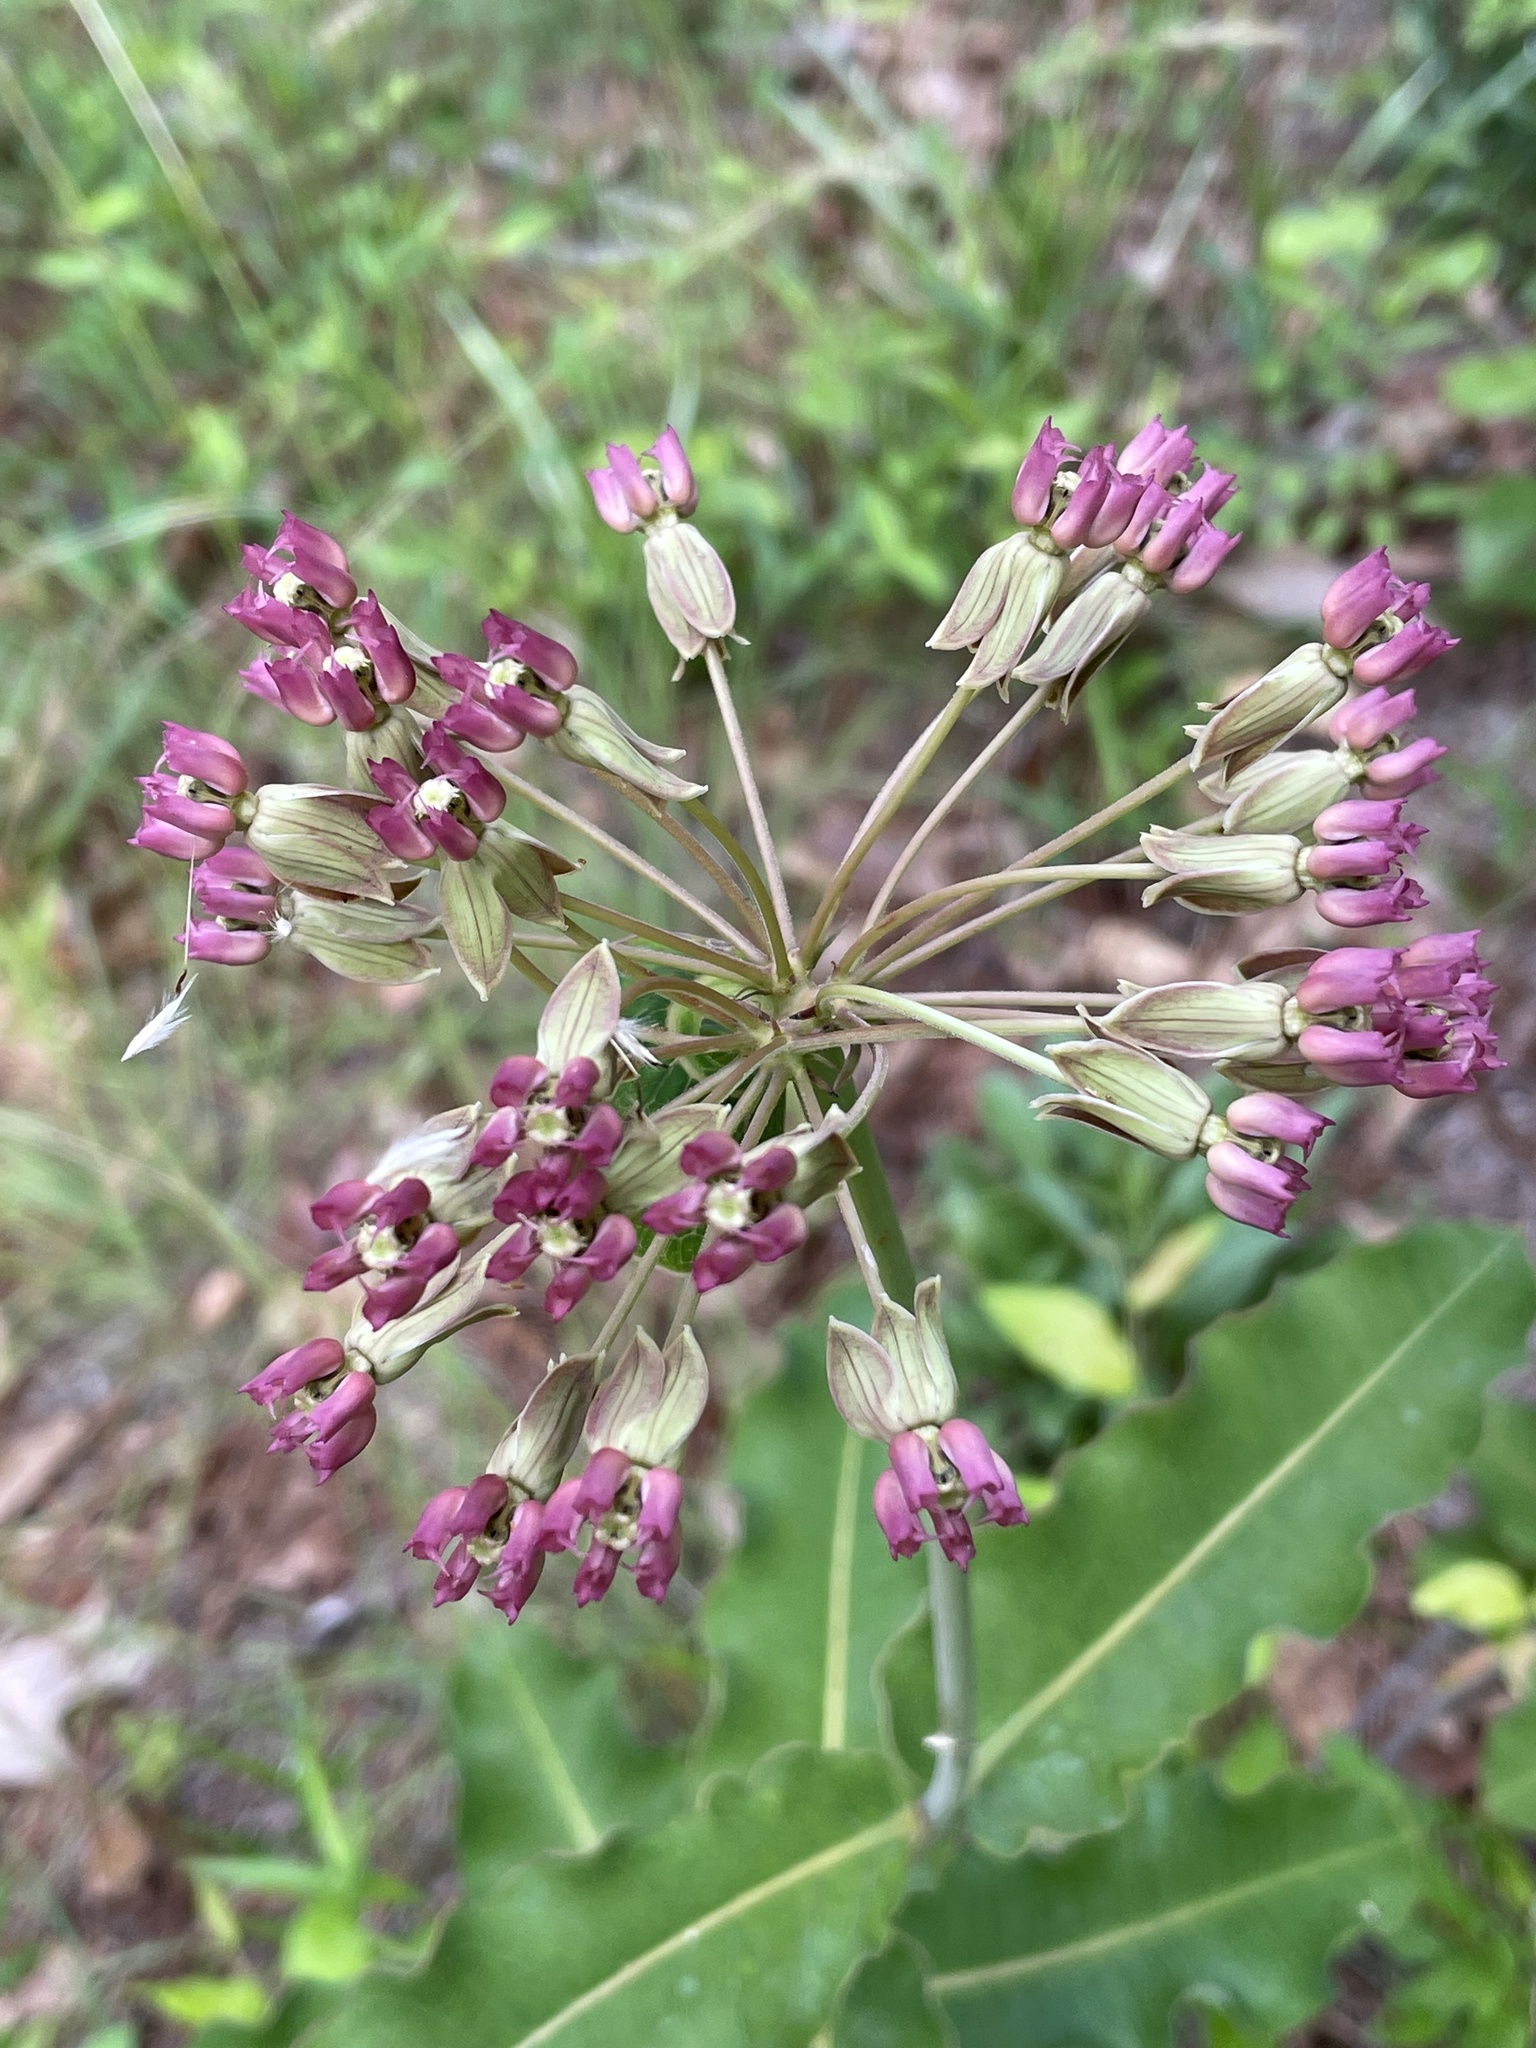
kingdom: Plantae
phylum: Tracheophyta
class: Magnoliopsida
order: Gentianales
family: Apocynaceae
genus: Asclepias
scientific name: Asclepias amplexicaulis
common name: Blunt-leaf milkweed
